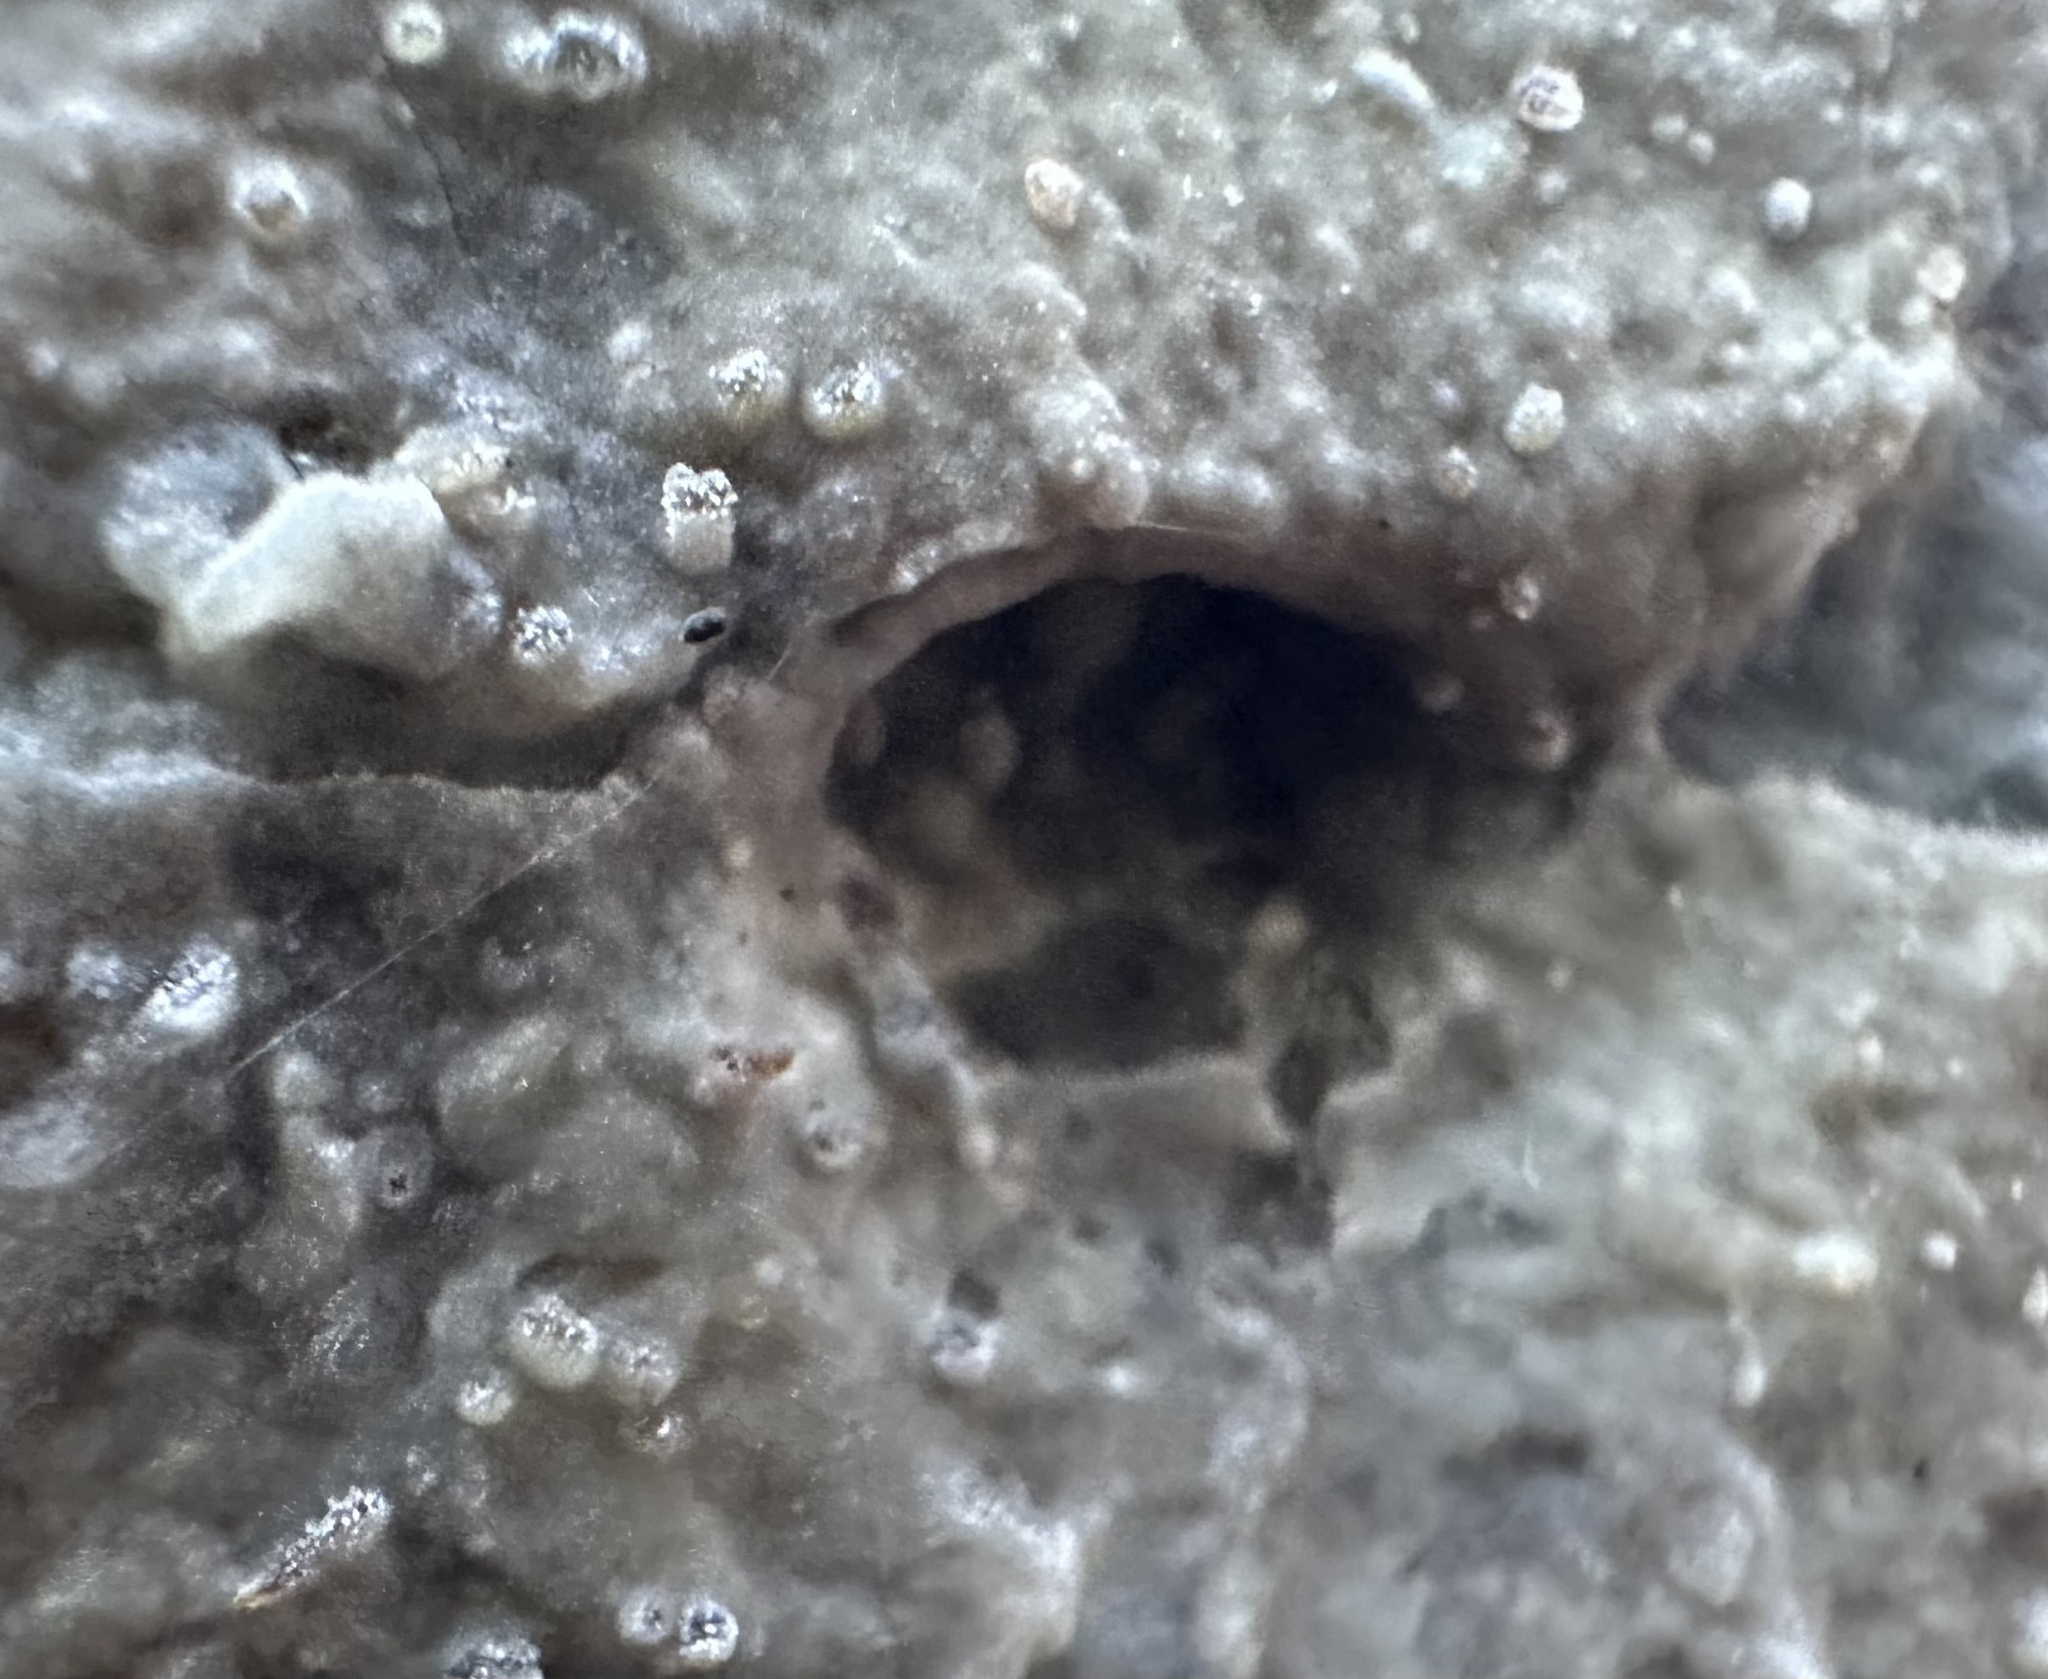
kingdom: Fungi
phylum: Basidiomycota
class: Agaricomycetes
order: Polyporales
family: Meruliaceae
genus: Hermanssonia
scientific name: Hermanssonia centrifuga
